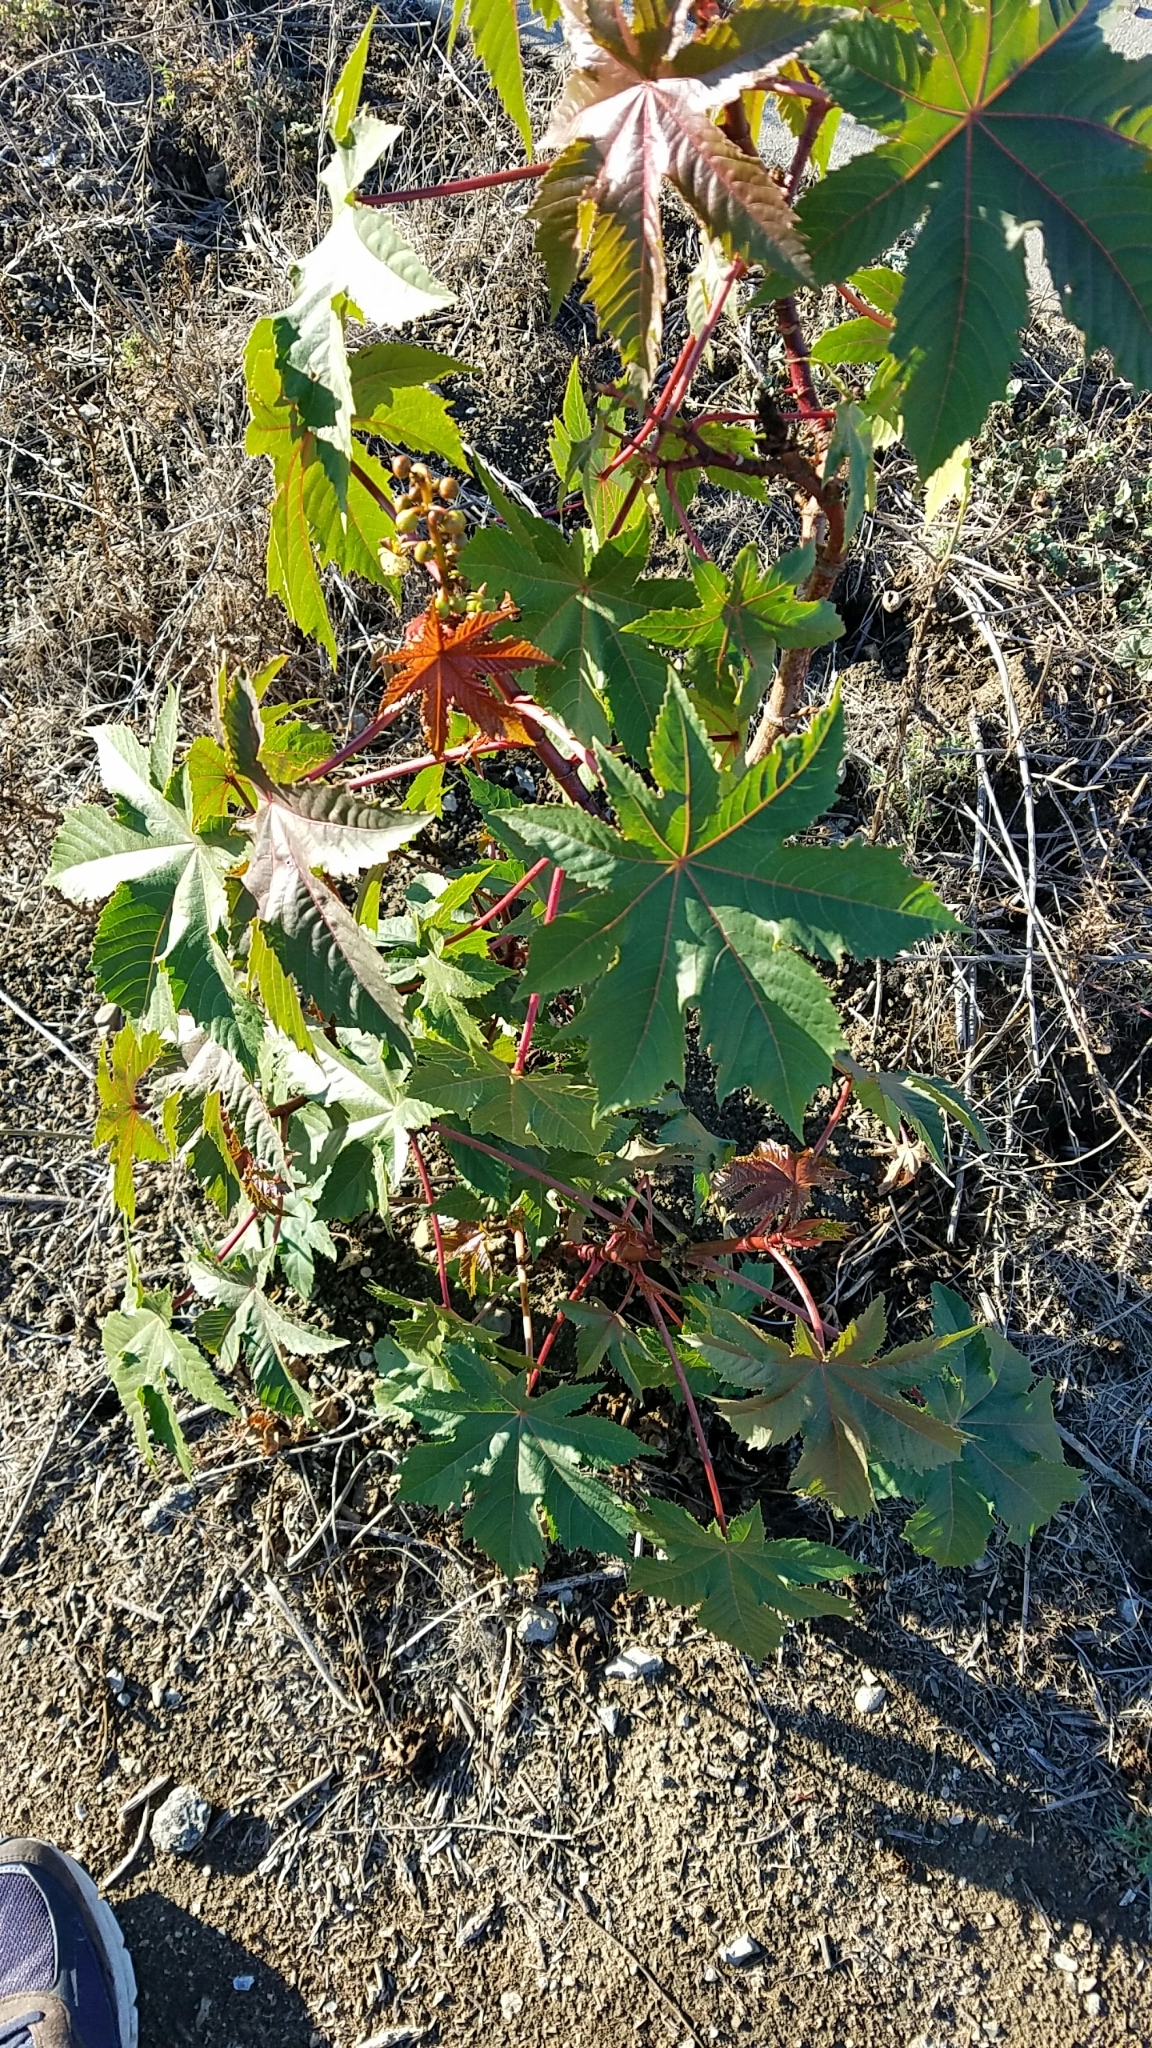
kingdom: Plantae
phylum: Tracheophyta
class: Magnoliopsida
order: Malpighiales
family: Euphorbiaceae
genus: Ricinus
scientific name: Ricinus communis
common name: Castor-oil-plant
